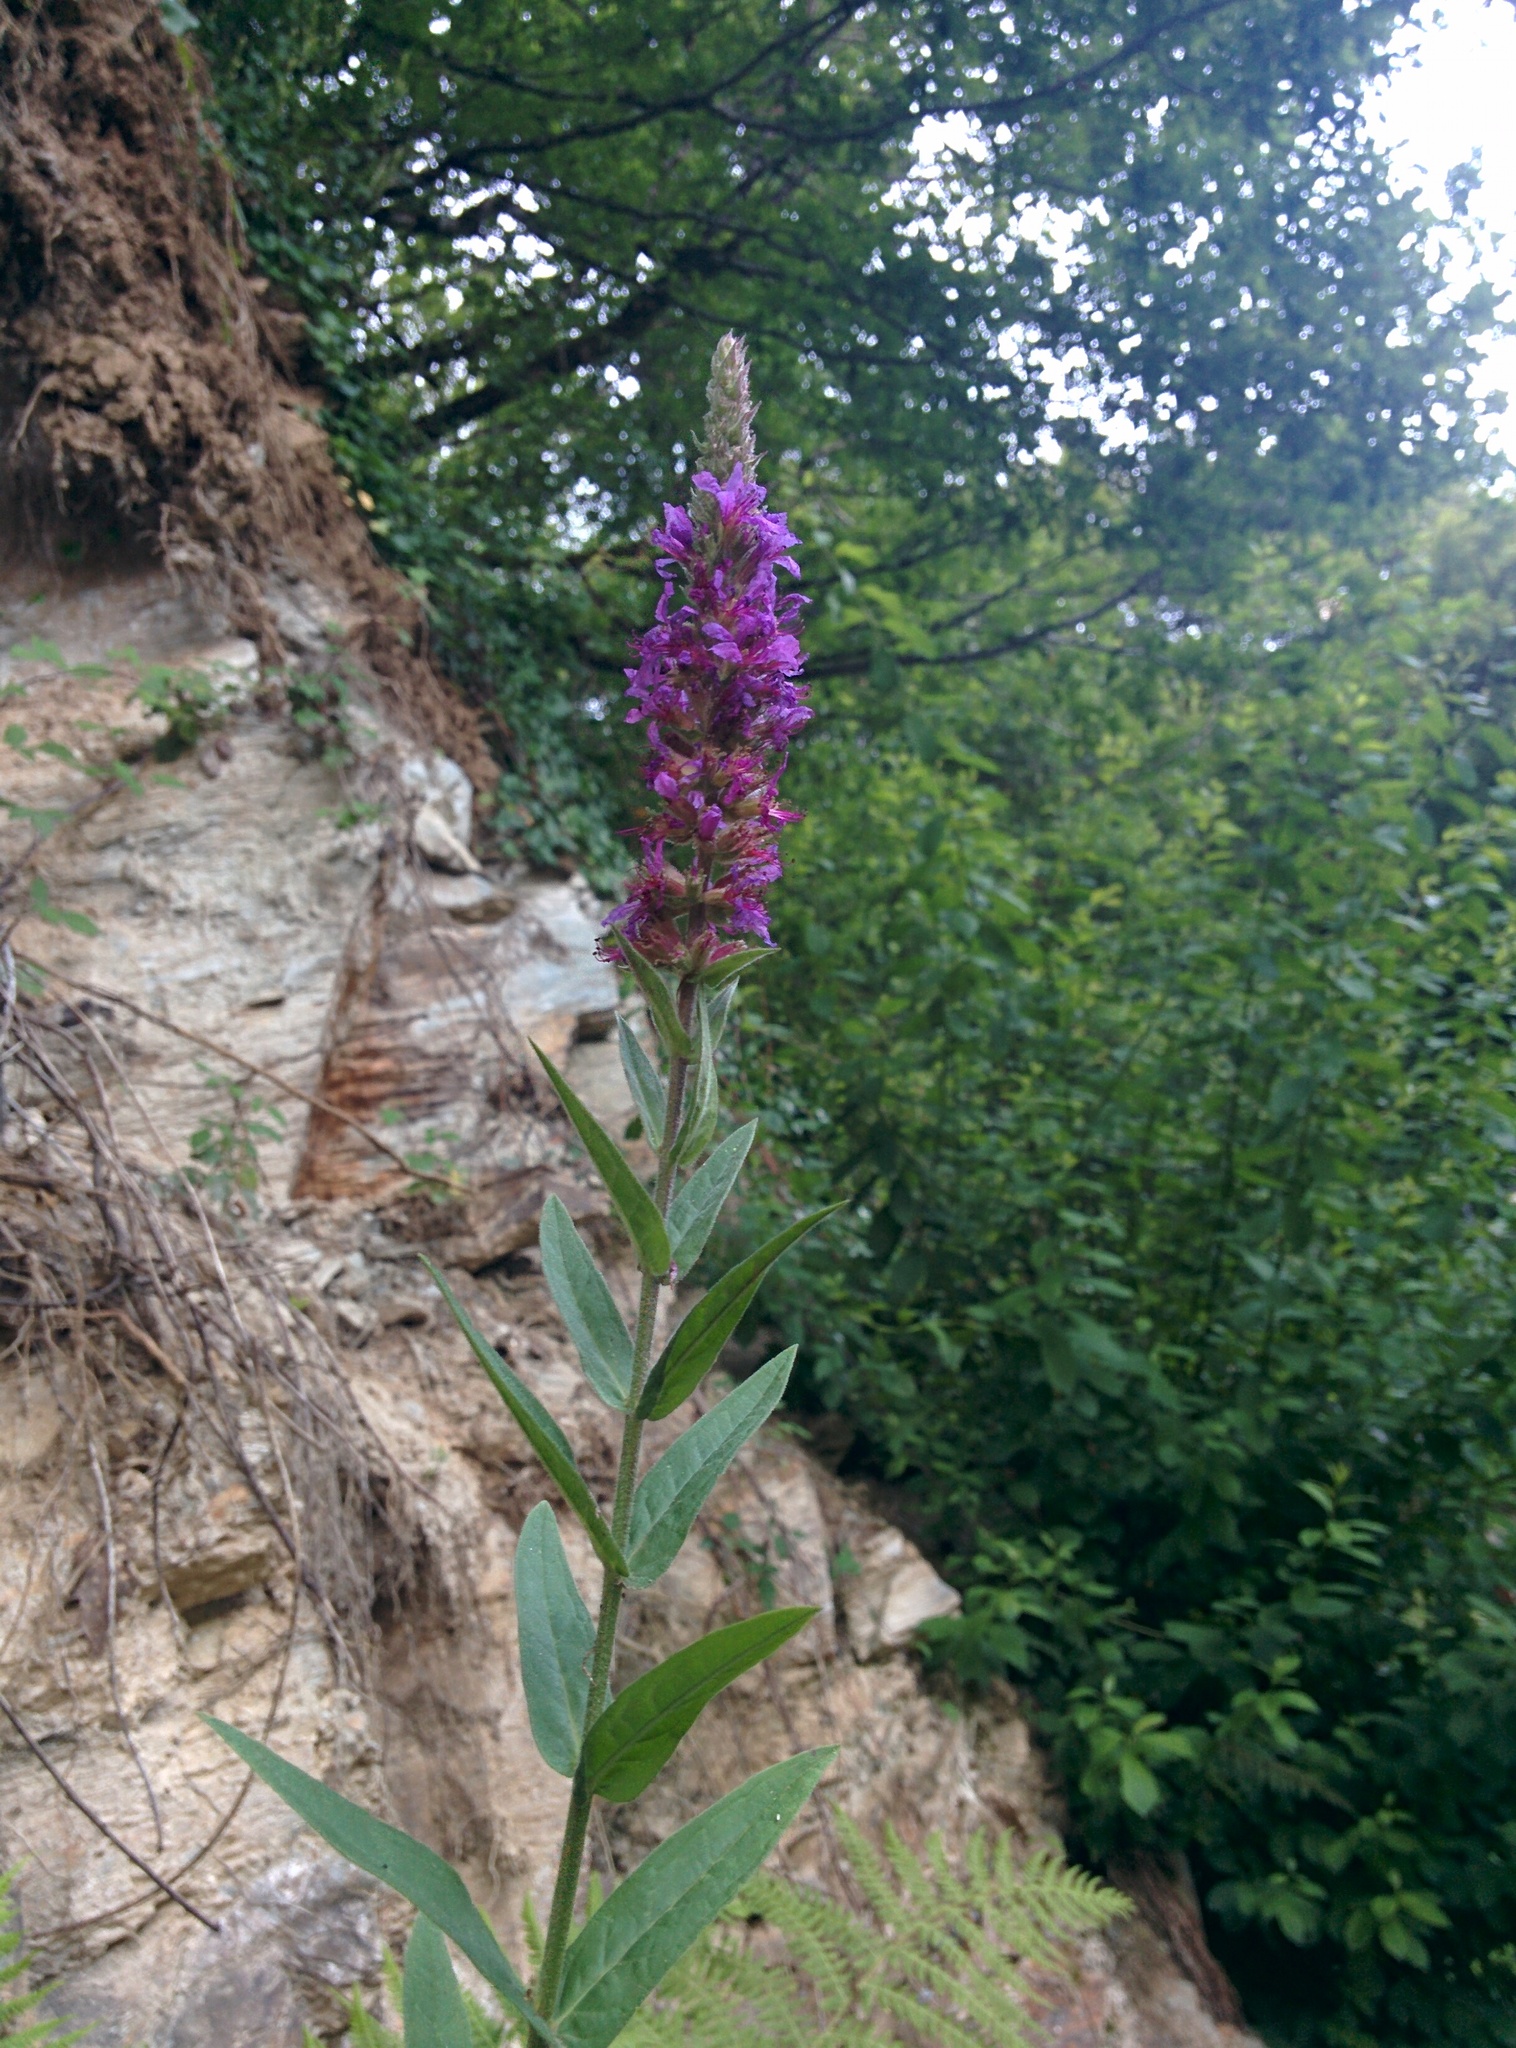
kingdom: Plantae
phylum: Tracheophyta
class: Magnoliopsida
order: Myrtales
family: Lythraceae
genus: Lythrum
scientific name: Lythrum salicaria
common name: Purple loosestrife
